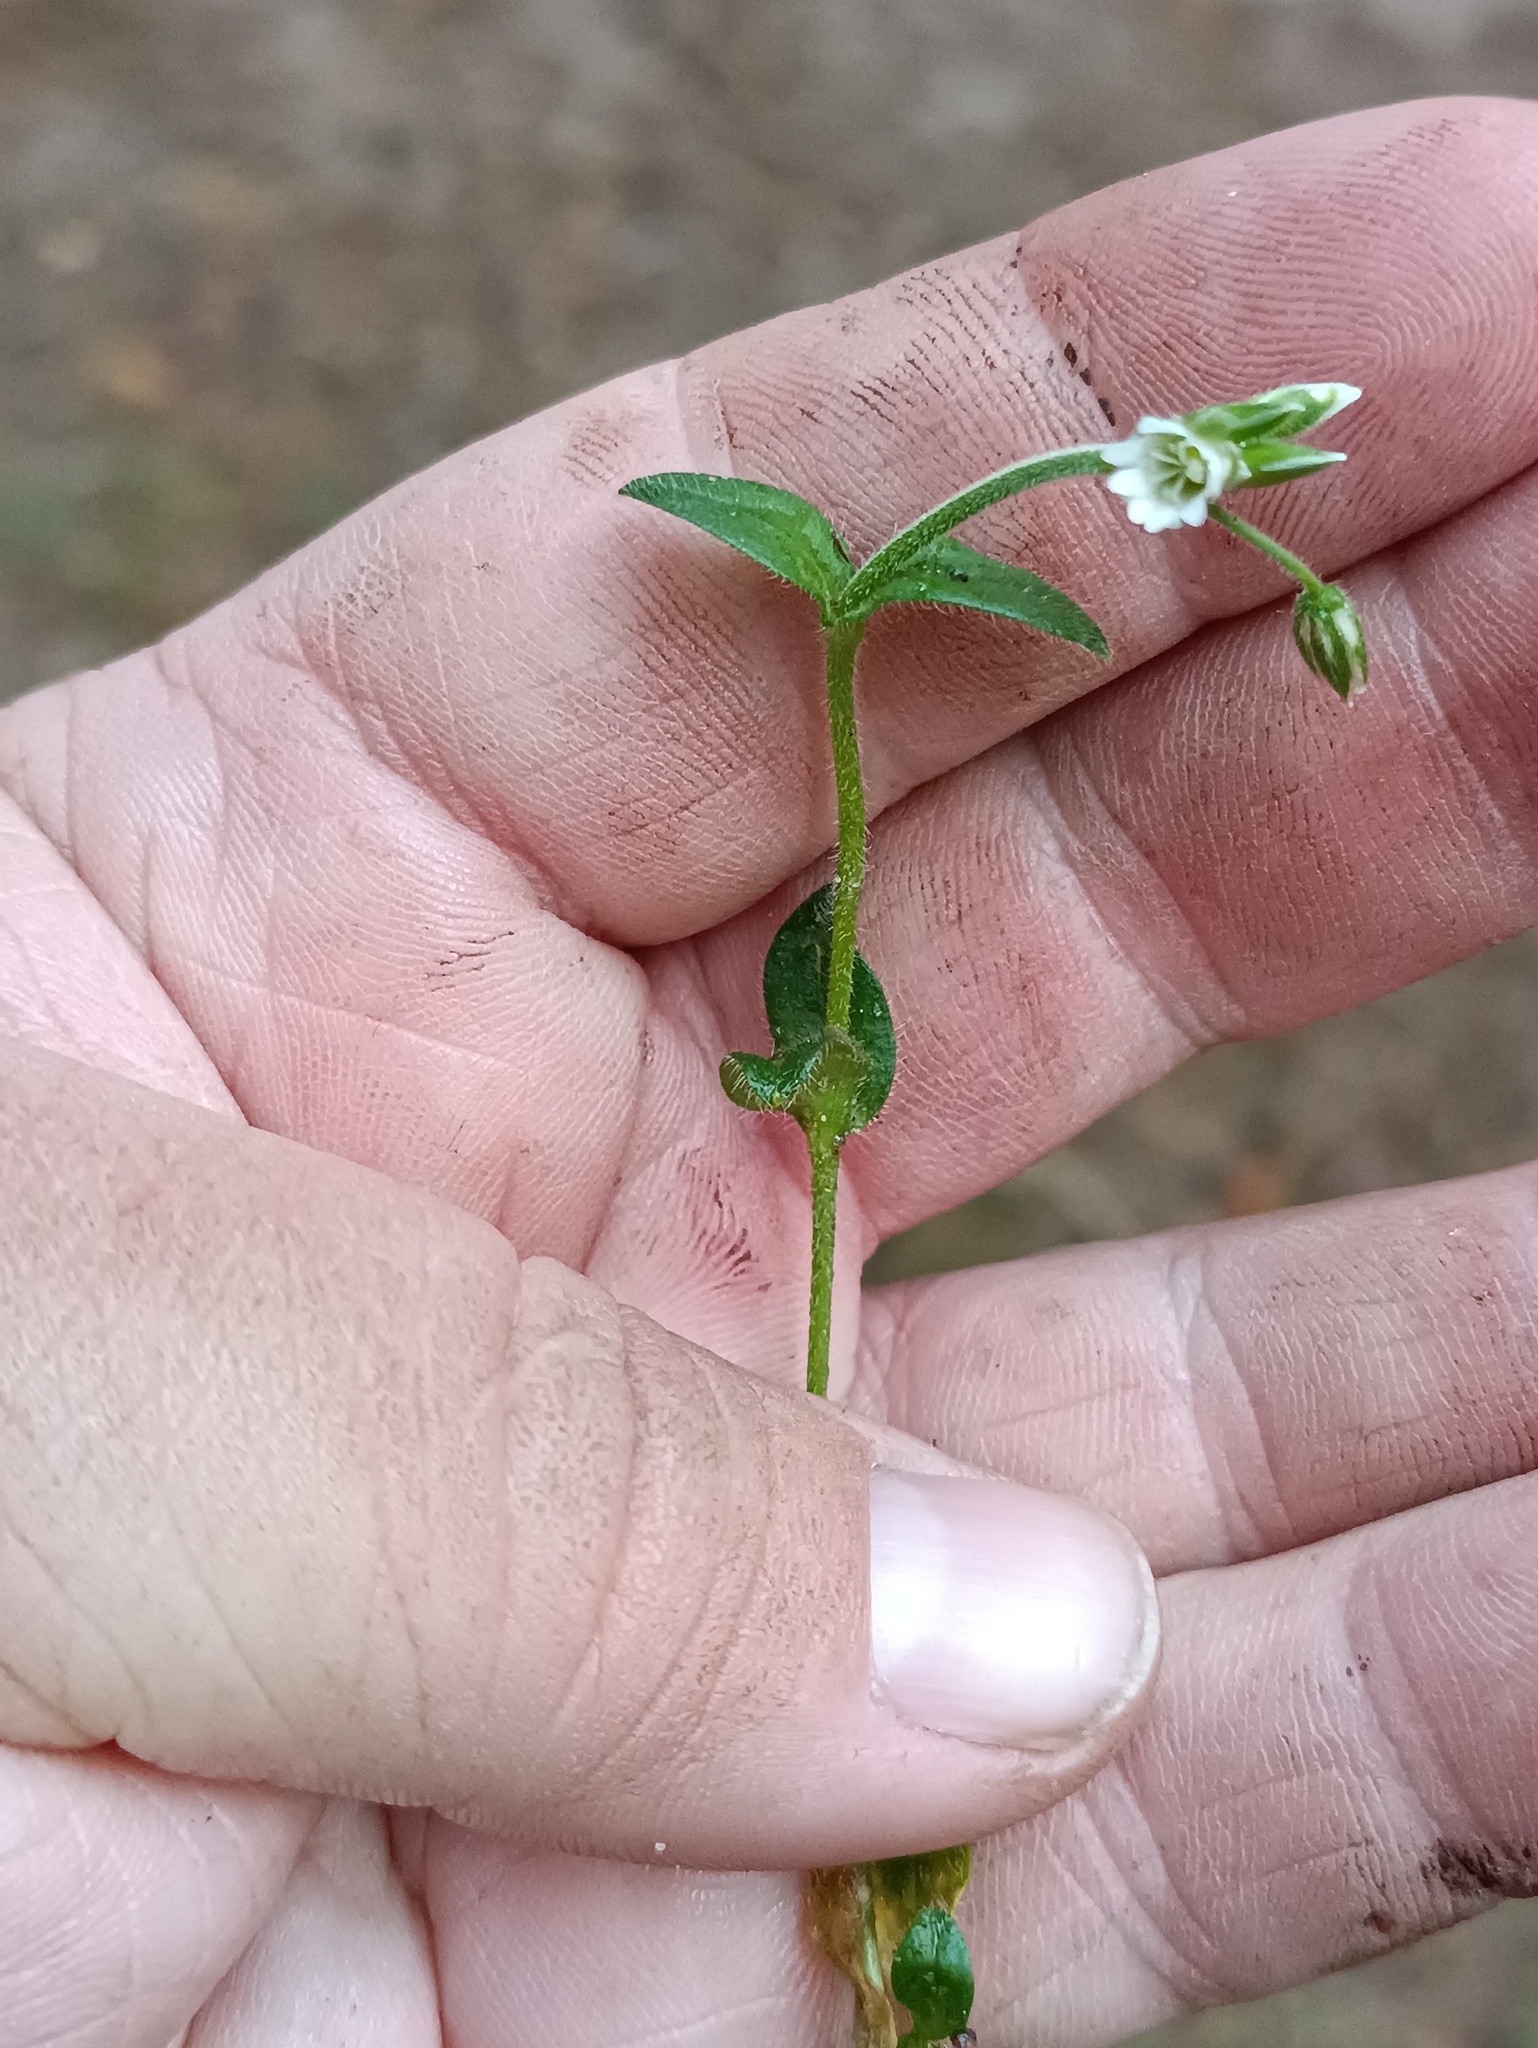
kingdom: Plantae
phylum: Tracheophyta
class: Magnoliopsida
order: Caryophyllales
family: Caryophyllaceae
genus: Cerastium
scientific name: Cerastium holosteoides
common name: Big chickweed
